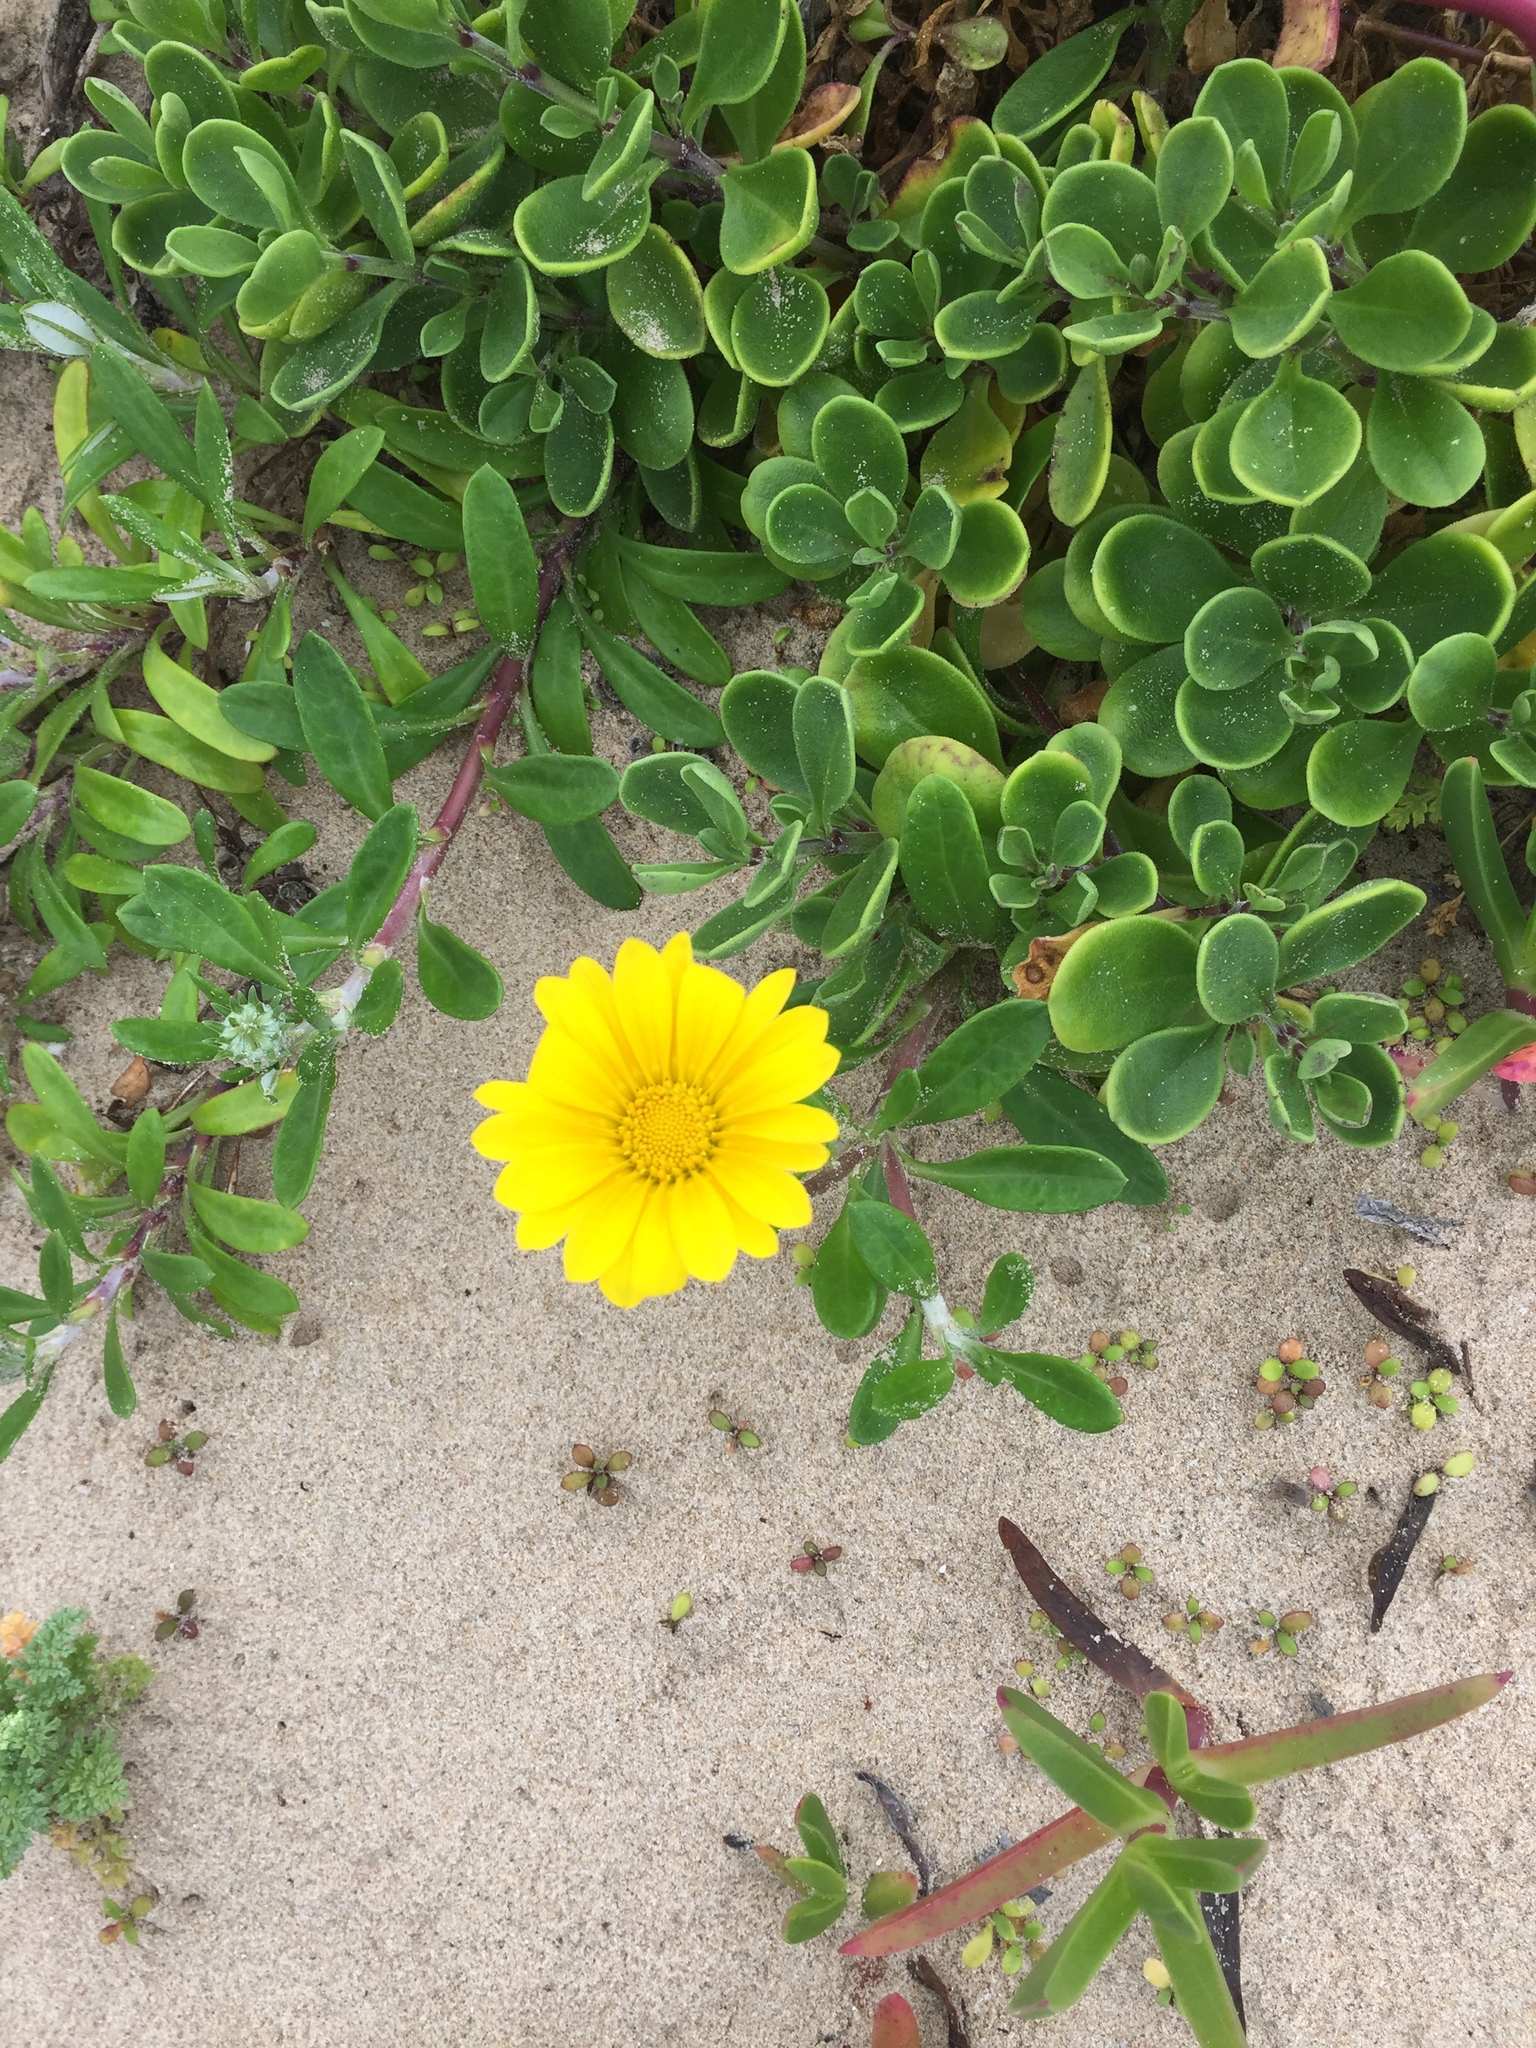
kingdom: Plantae
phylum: Tracheophyta
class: Magnoliopsida
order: Asterales
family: Asteraceae
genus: Gazania
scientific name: Gazania rigens
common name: Treasureflower
